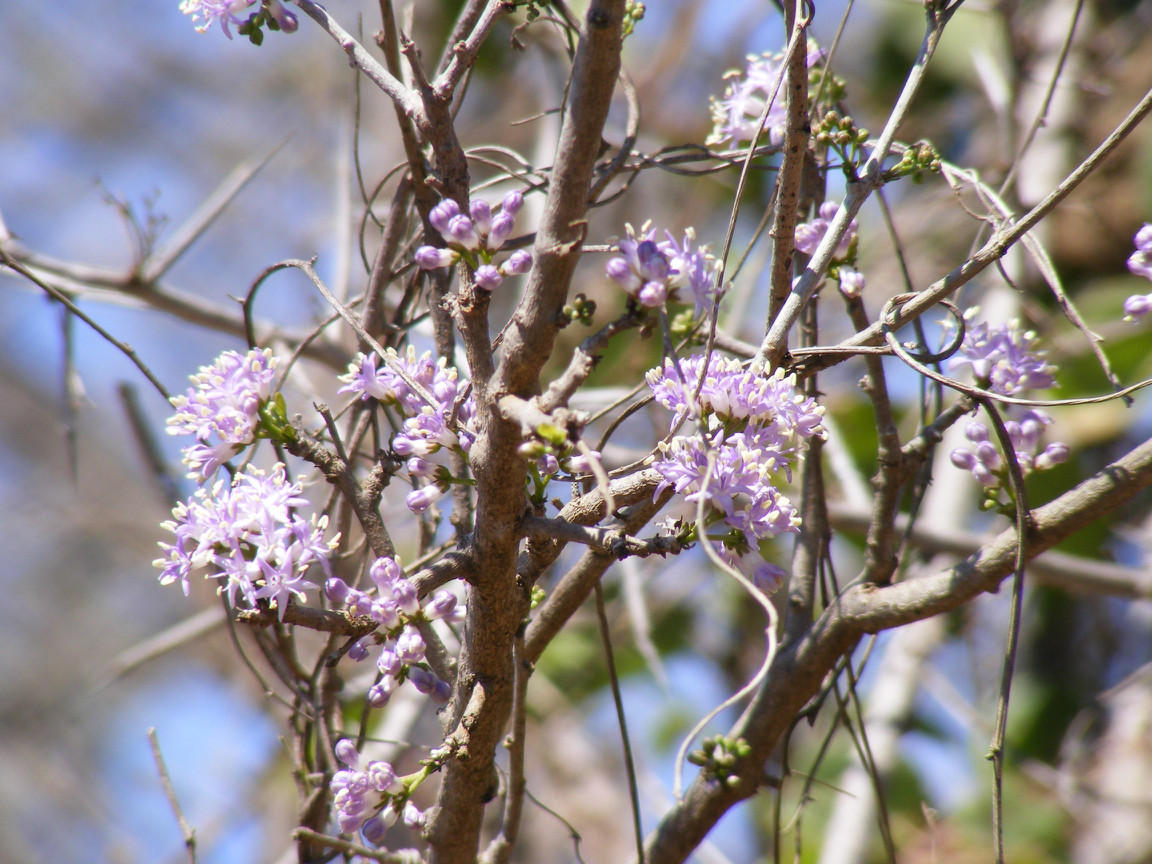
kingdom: Plantae
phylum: Tracheophyta
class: Magnoliopsida
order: Boraginales
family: Ehretiaceae
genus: Ehretia
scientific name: Ehretia rigida
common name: Cape lilac
